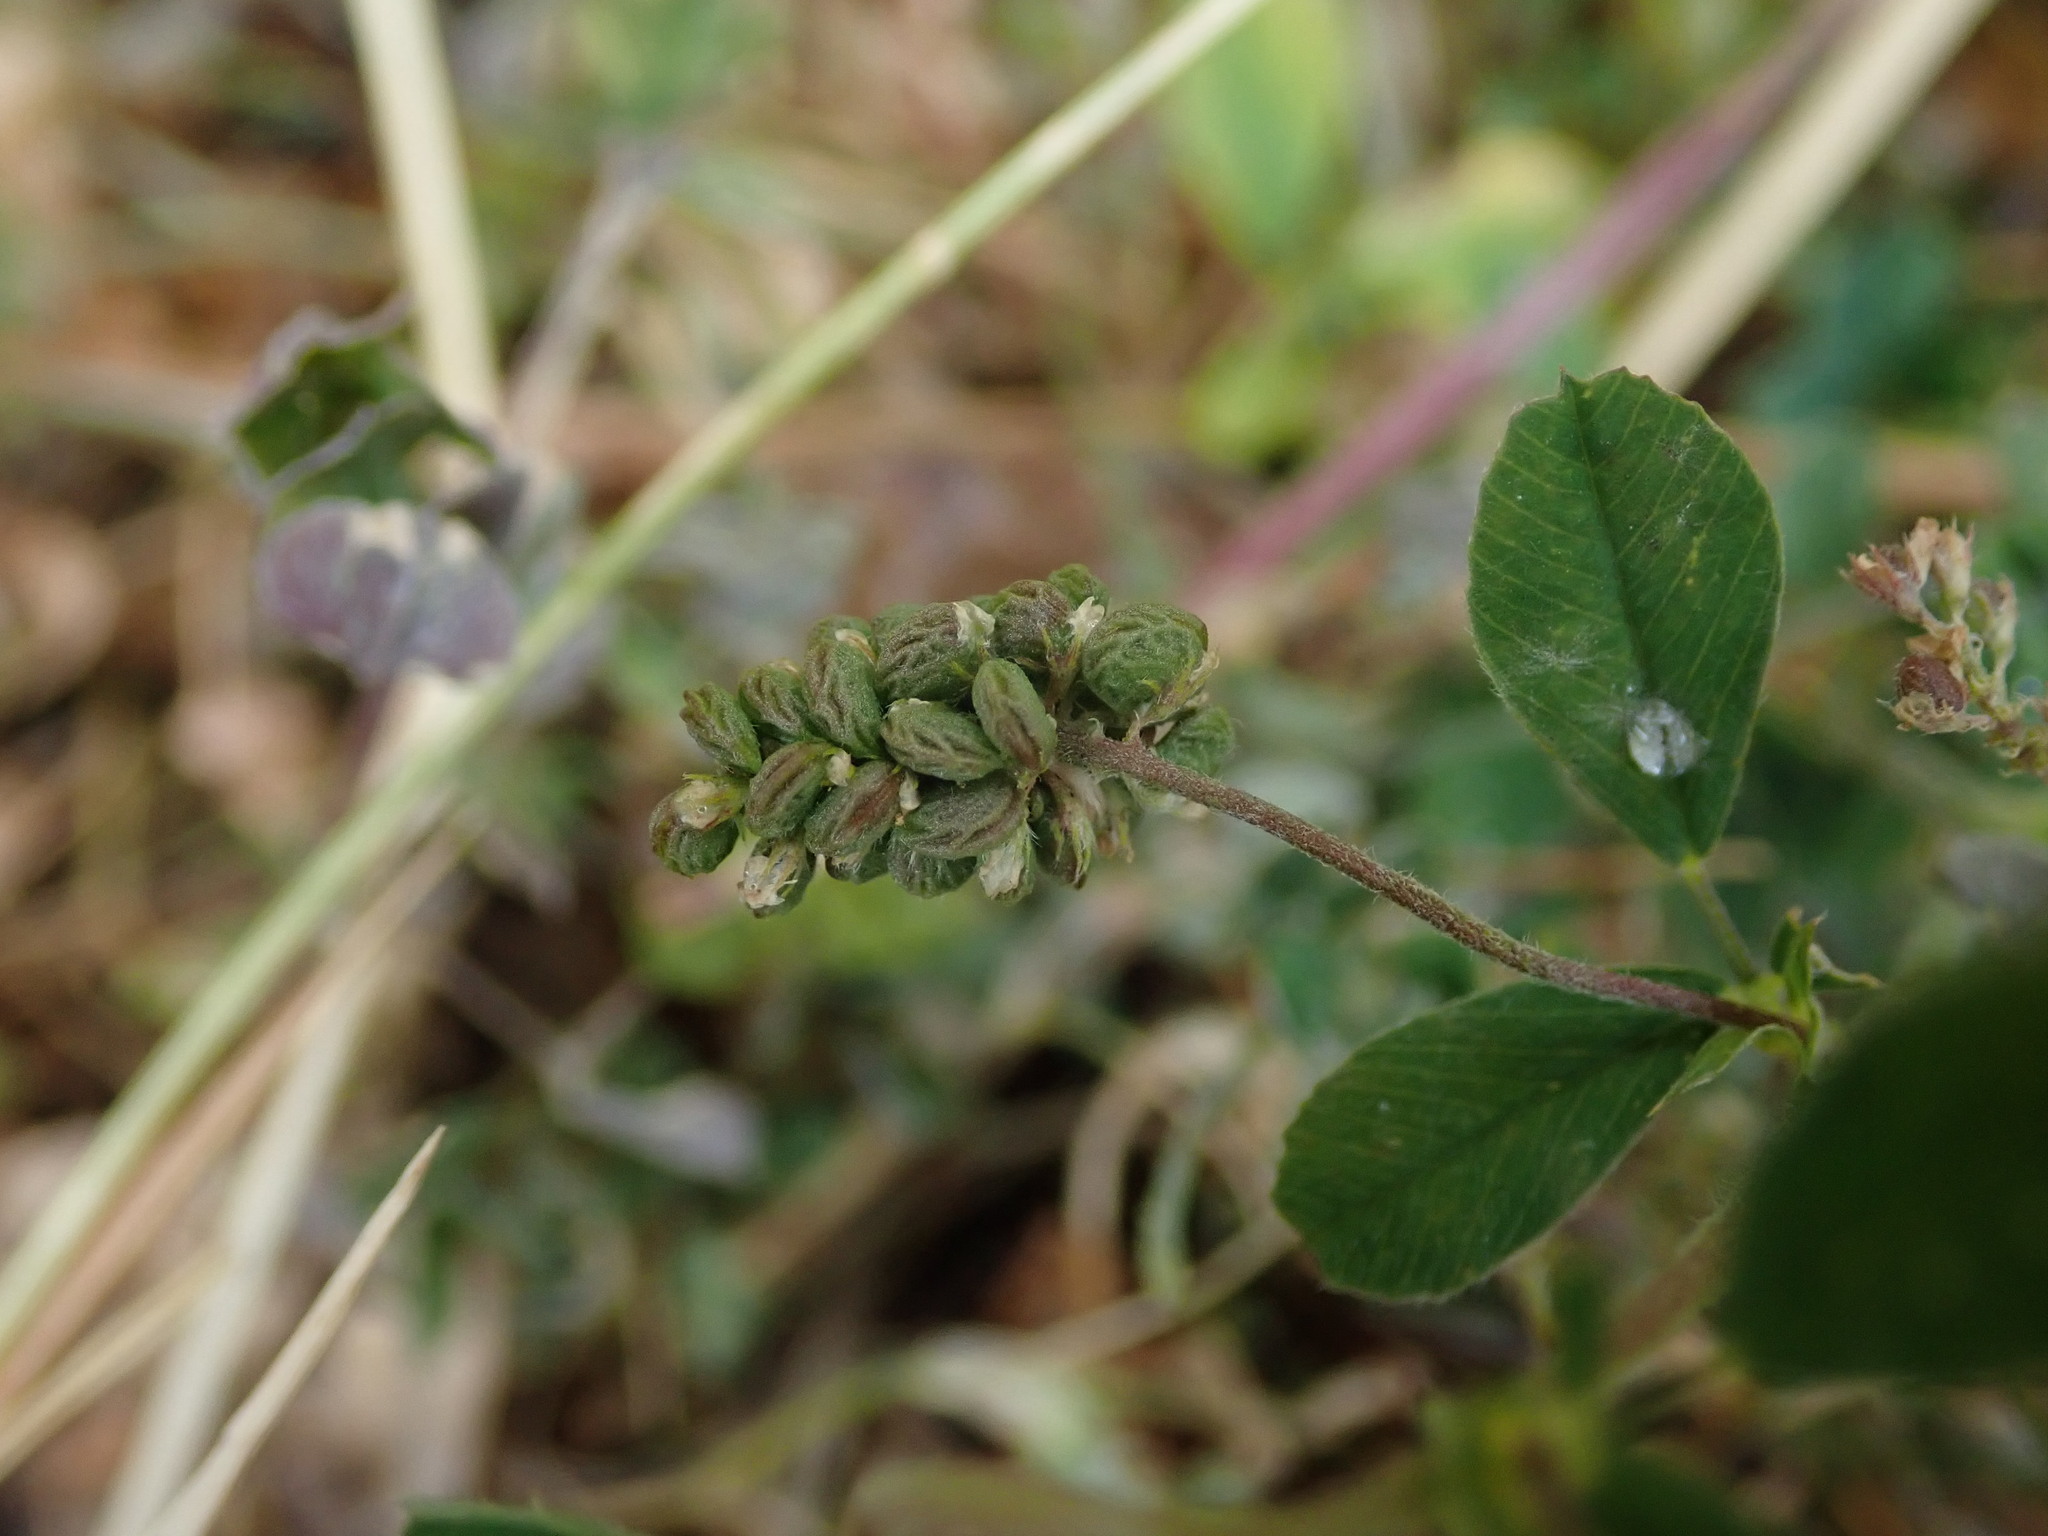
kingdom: Plantae
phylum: Tracheophyta
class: Magnoliopsida
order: Fabales
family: Fabaceae
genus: Medicago
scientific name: Medicago lupulina
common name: Black medick
